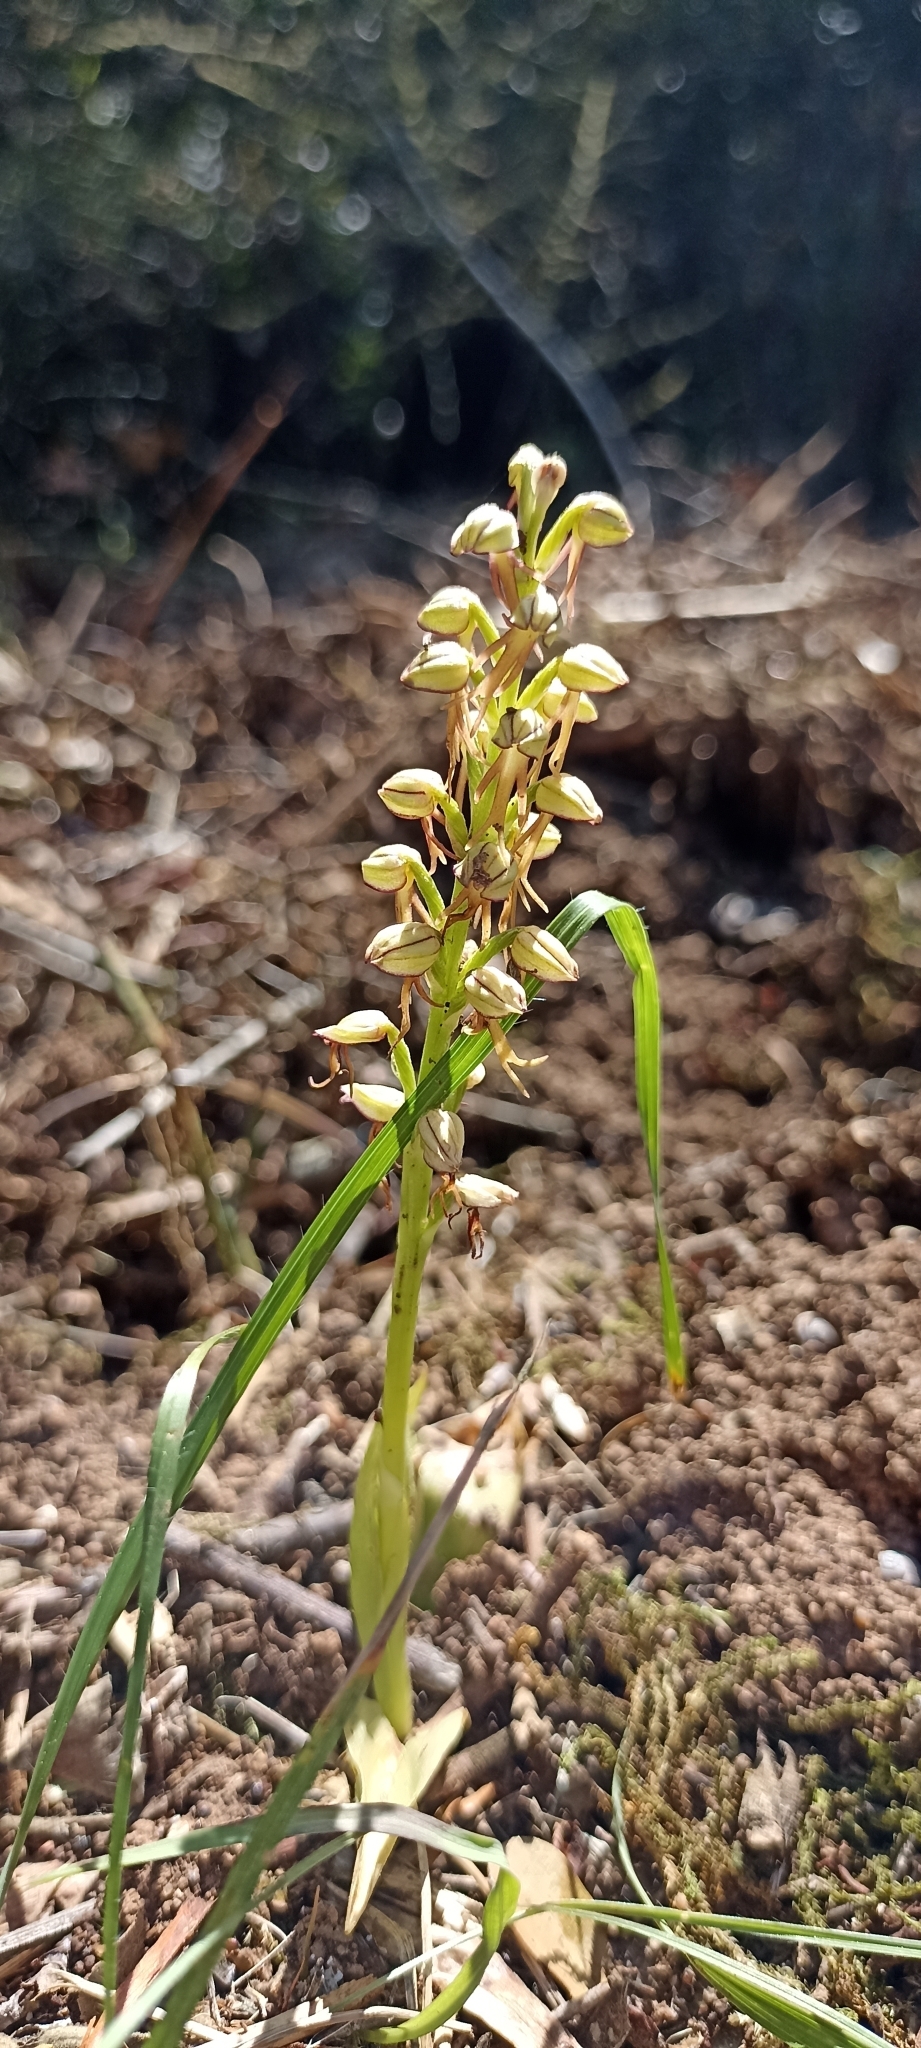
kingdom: Plantae
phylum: Tracheophyta
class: Liliopsida
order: Asparagales
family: Orchidaceae
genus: Orchis
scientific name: Orchis anthropophora
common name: Man orchid
